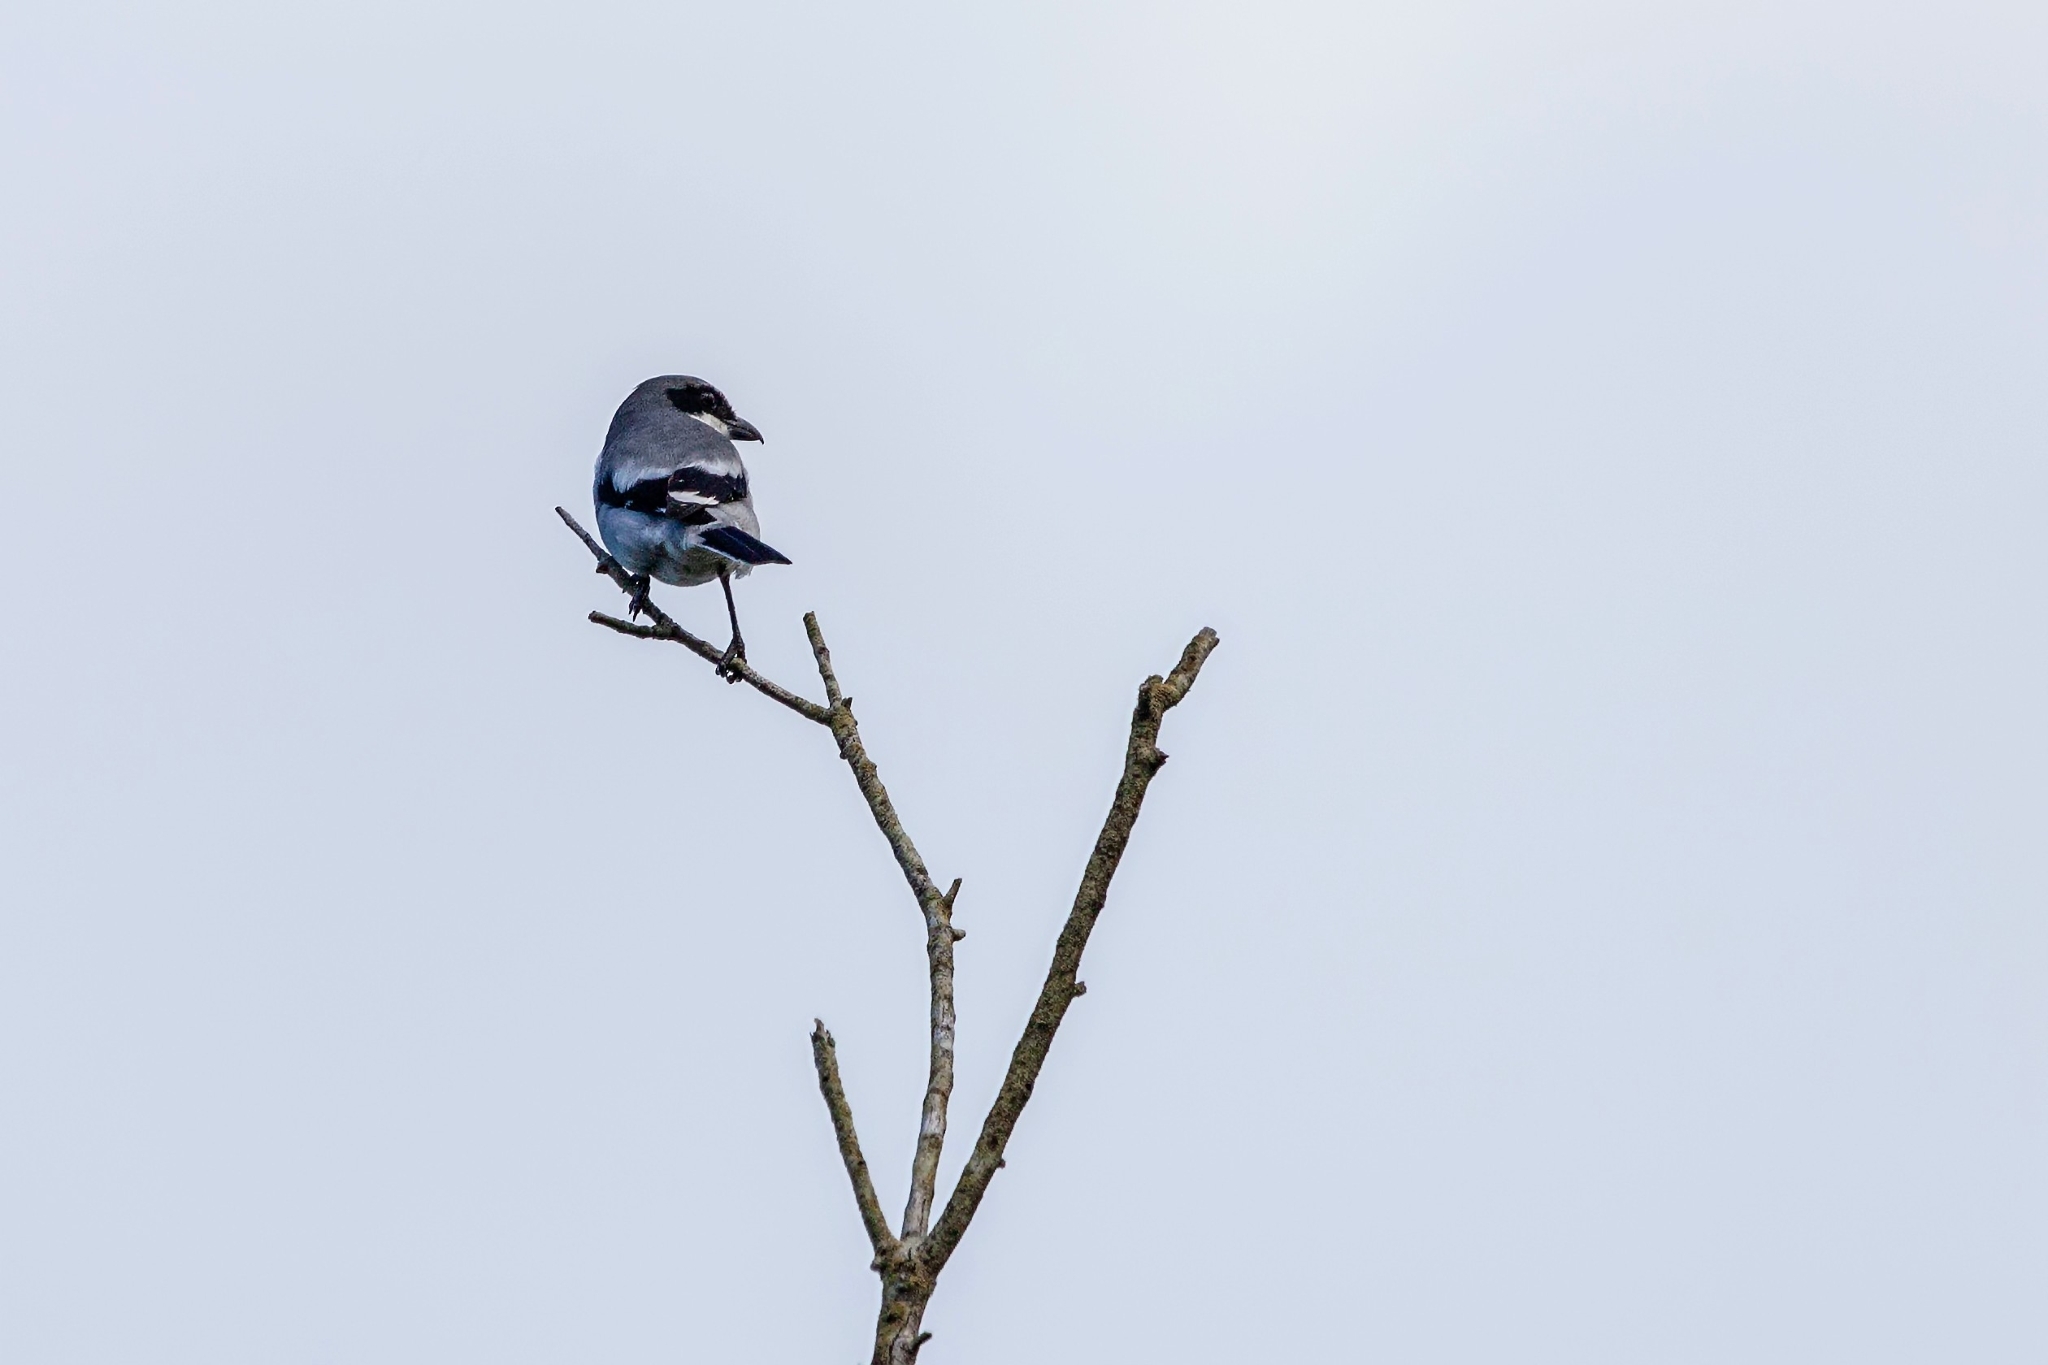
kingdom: Animalia
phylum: Chordata
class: Aves
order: Passeriformes
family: Laniidae
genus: Lanius
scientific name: Lanius ludovicianus
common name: Loggerhead shrike
